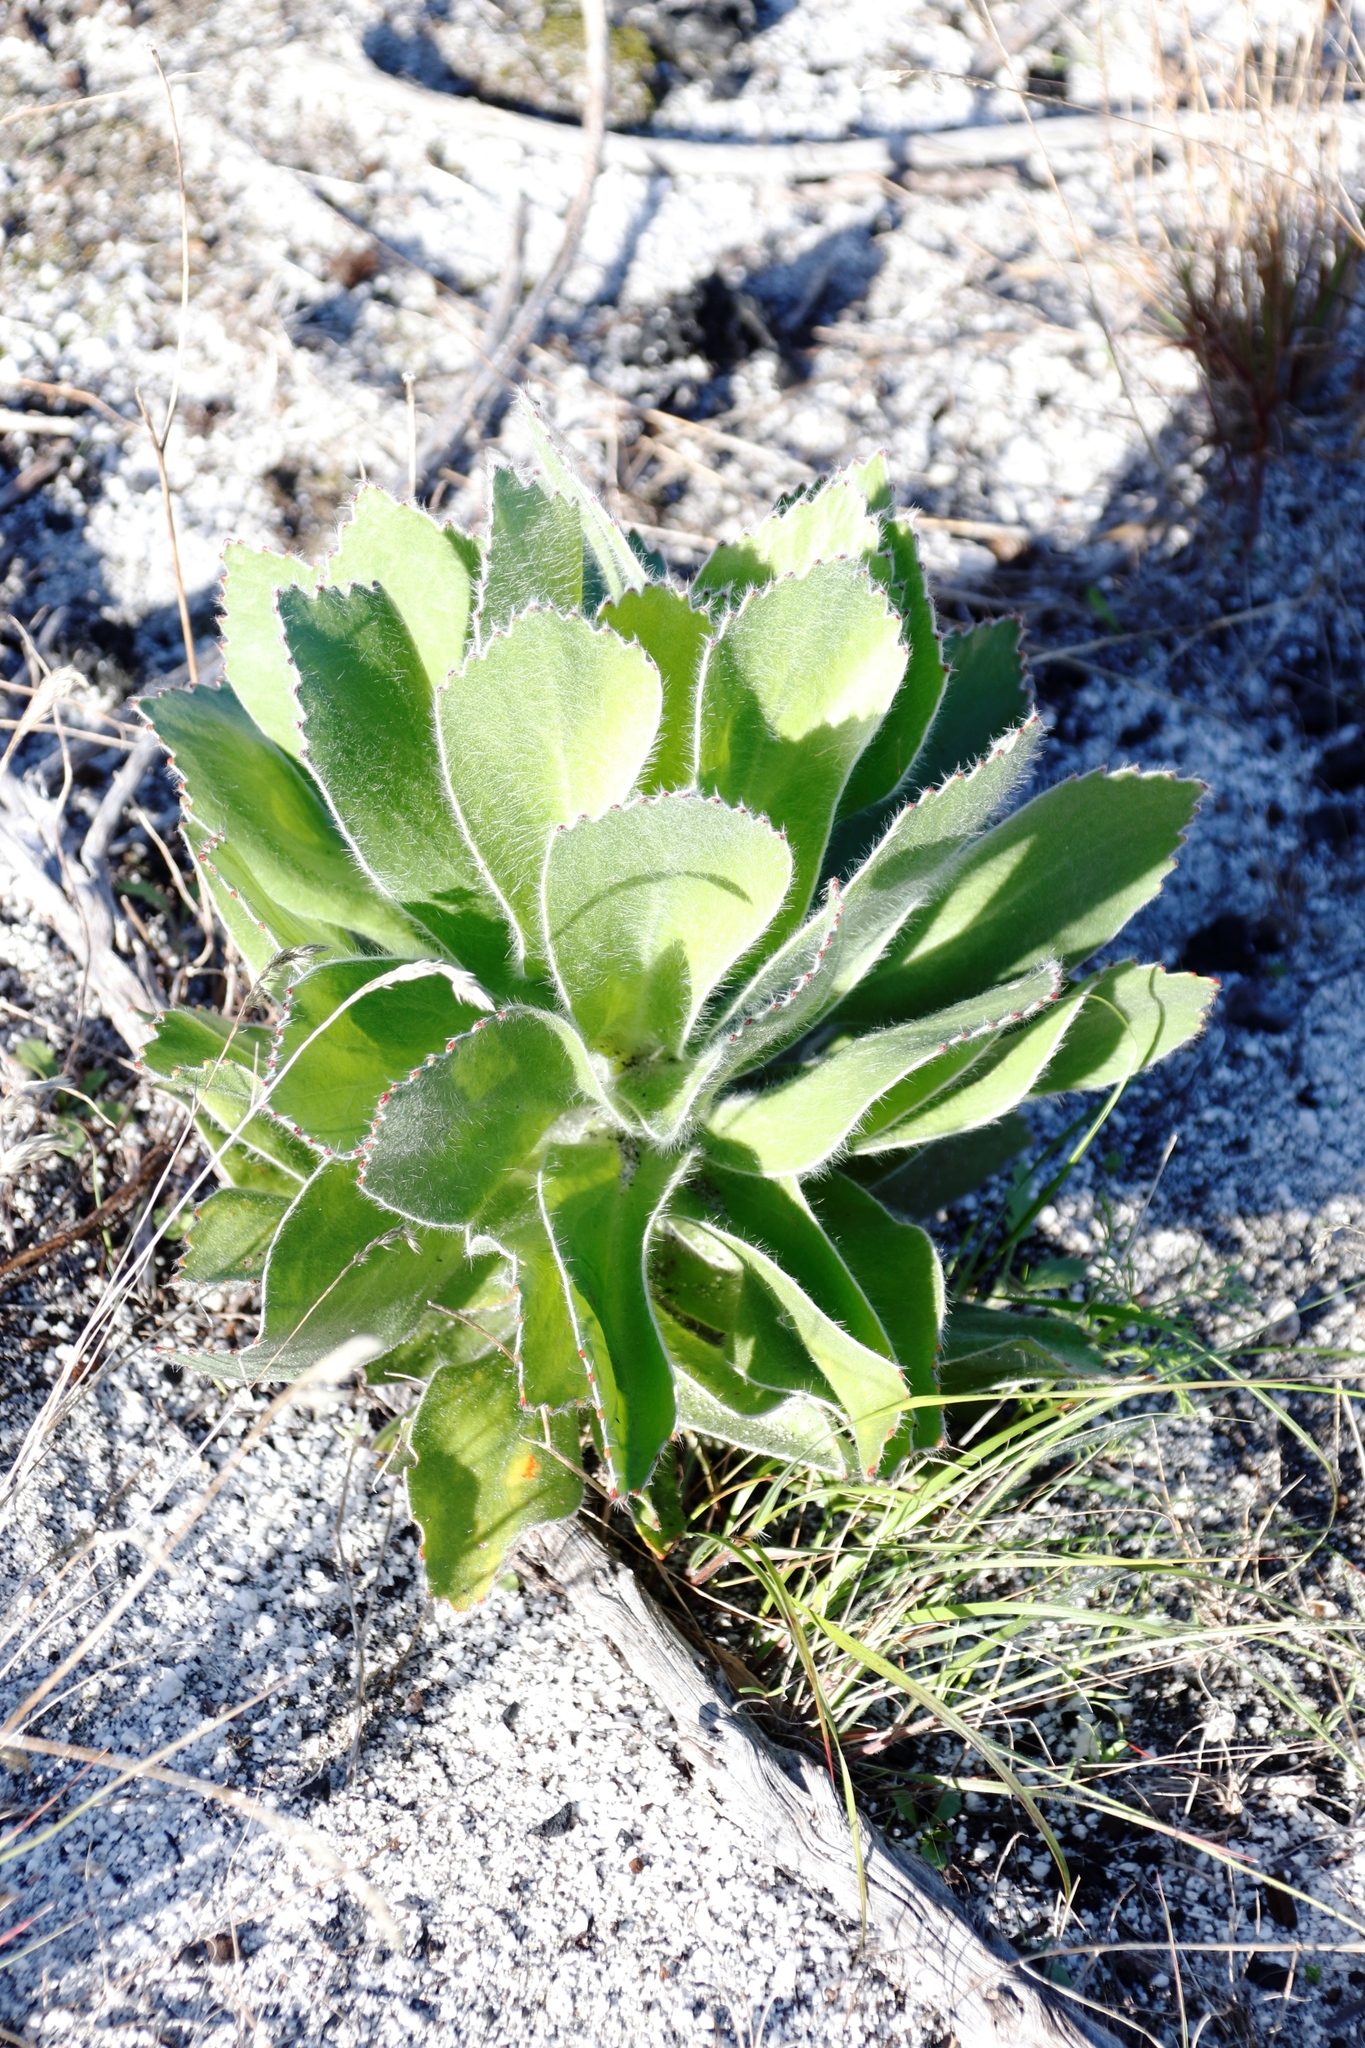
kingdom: Plantae
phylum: Tracheophyta
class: Magnoliopsida
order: Proteales
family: Proteaceae
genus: Leucospermum
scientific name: Leucospermum conocarpodendron
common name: Tree pincushion
